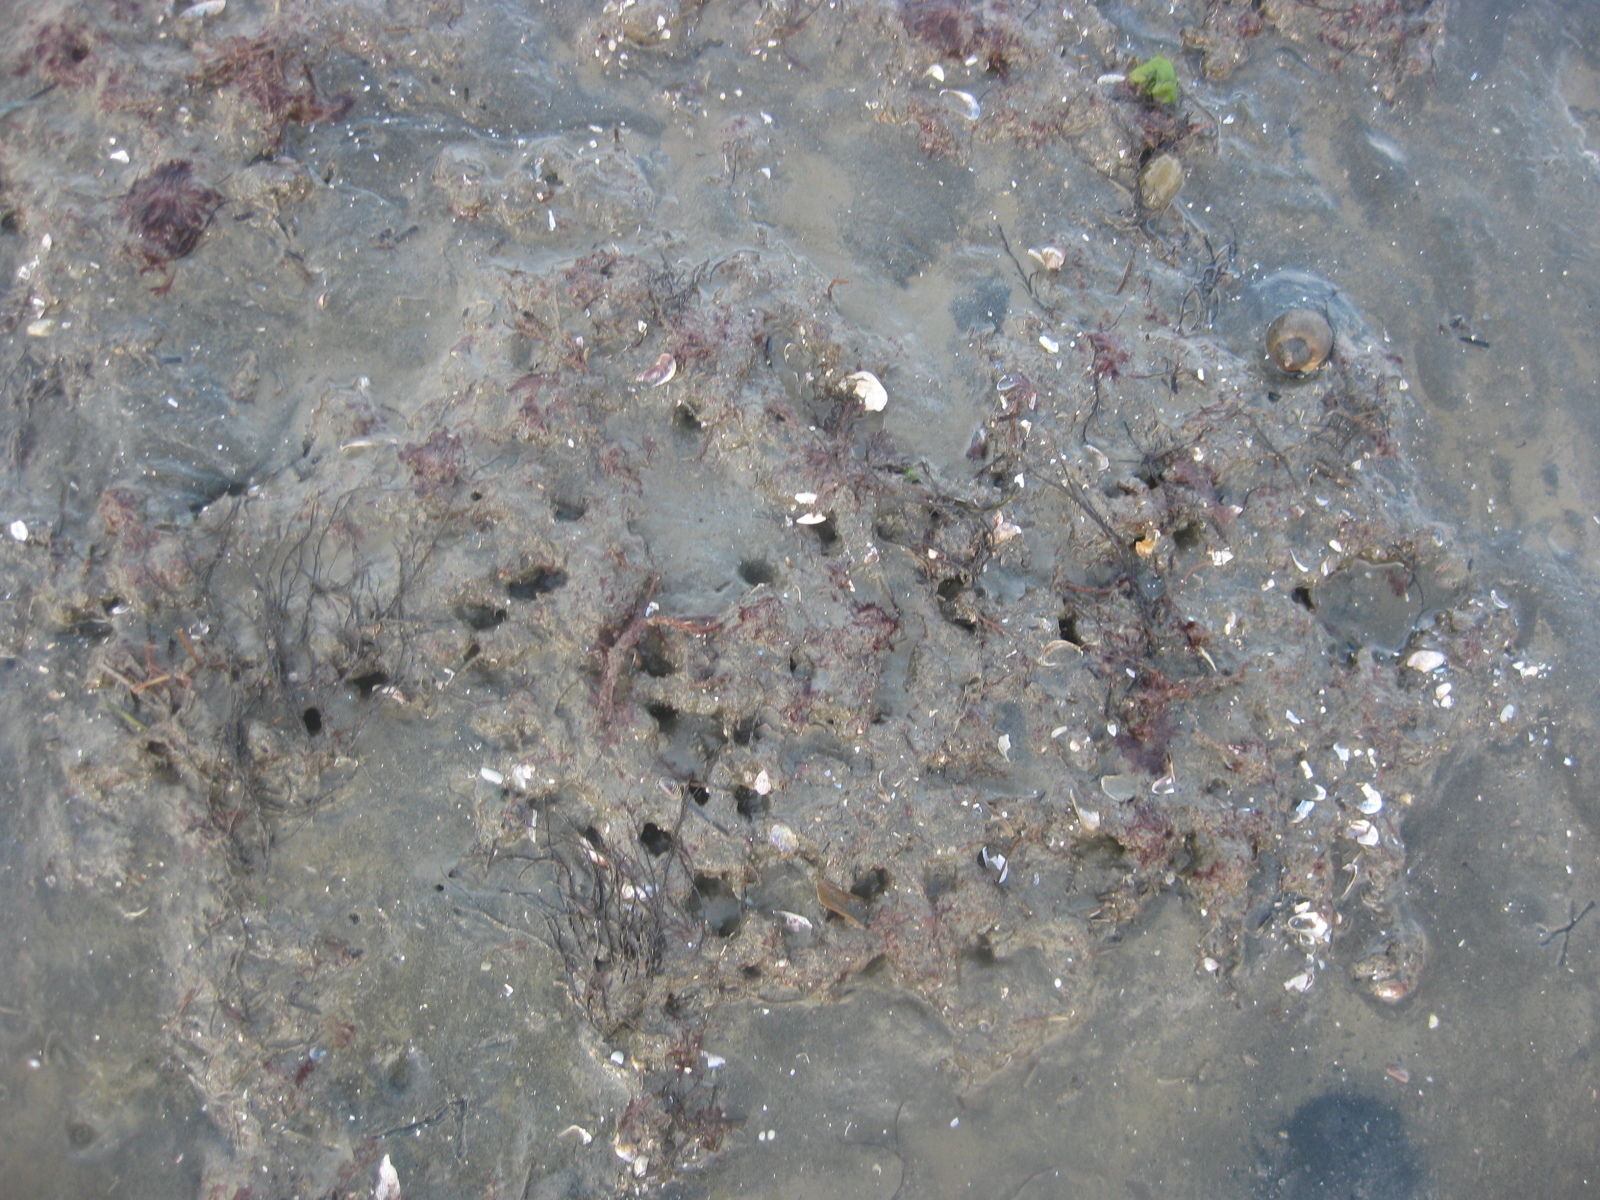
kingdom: Animalia
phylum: Mollusca
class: Bivalvia
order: Mytilida
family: Mytilidae
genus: Arcuatula
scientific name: Arcuatula senhousia
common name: Asian mussel
